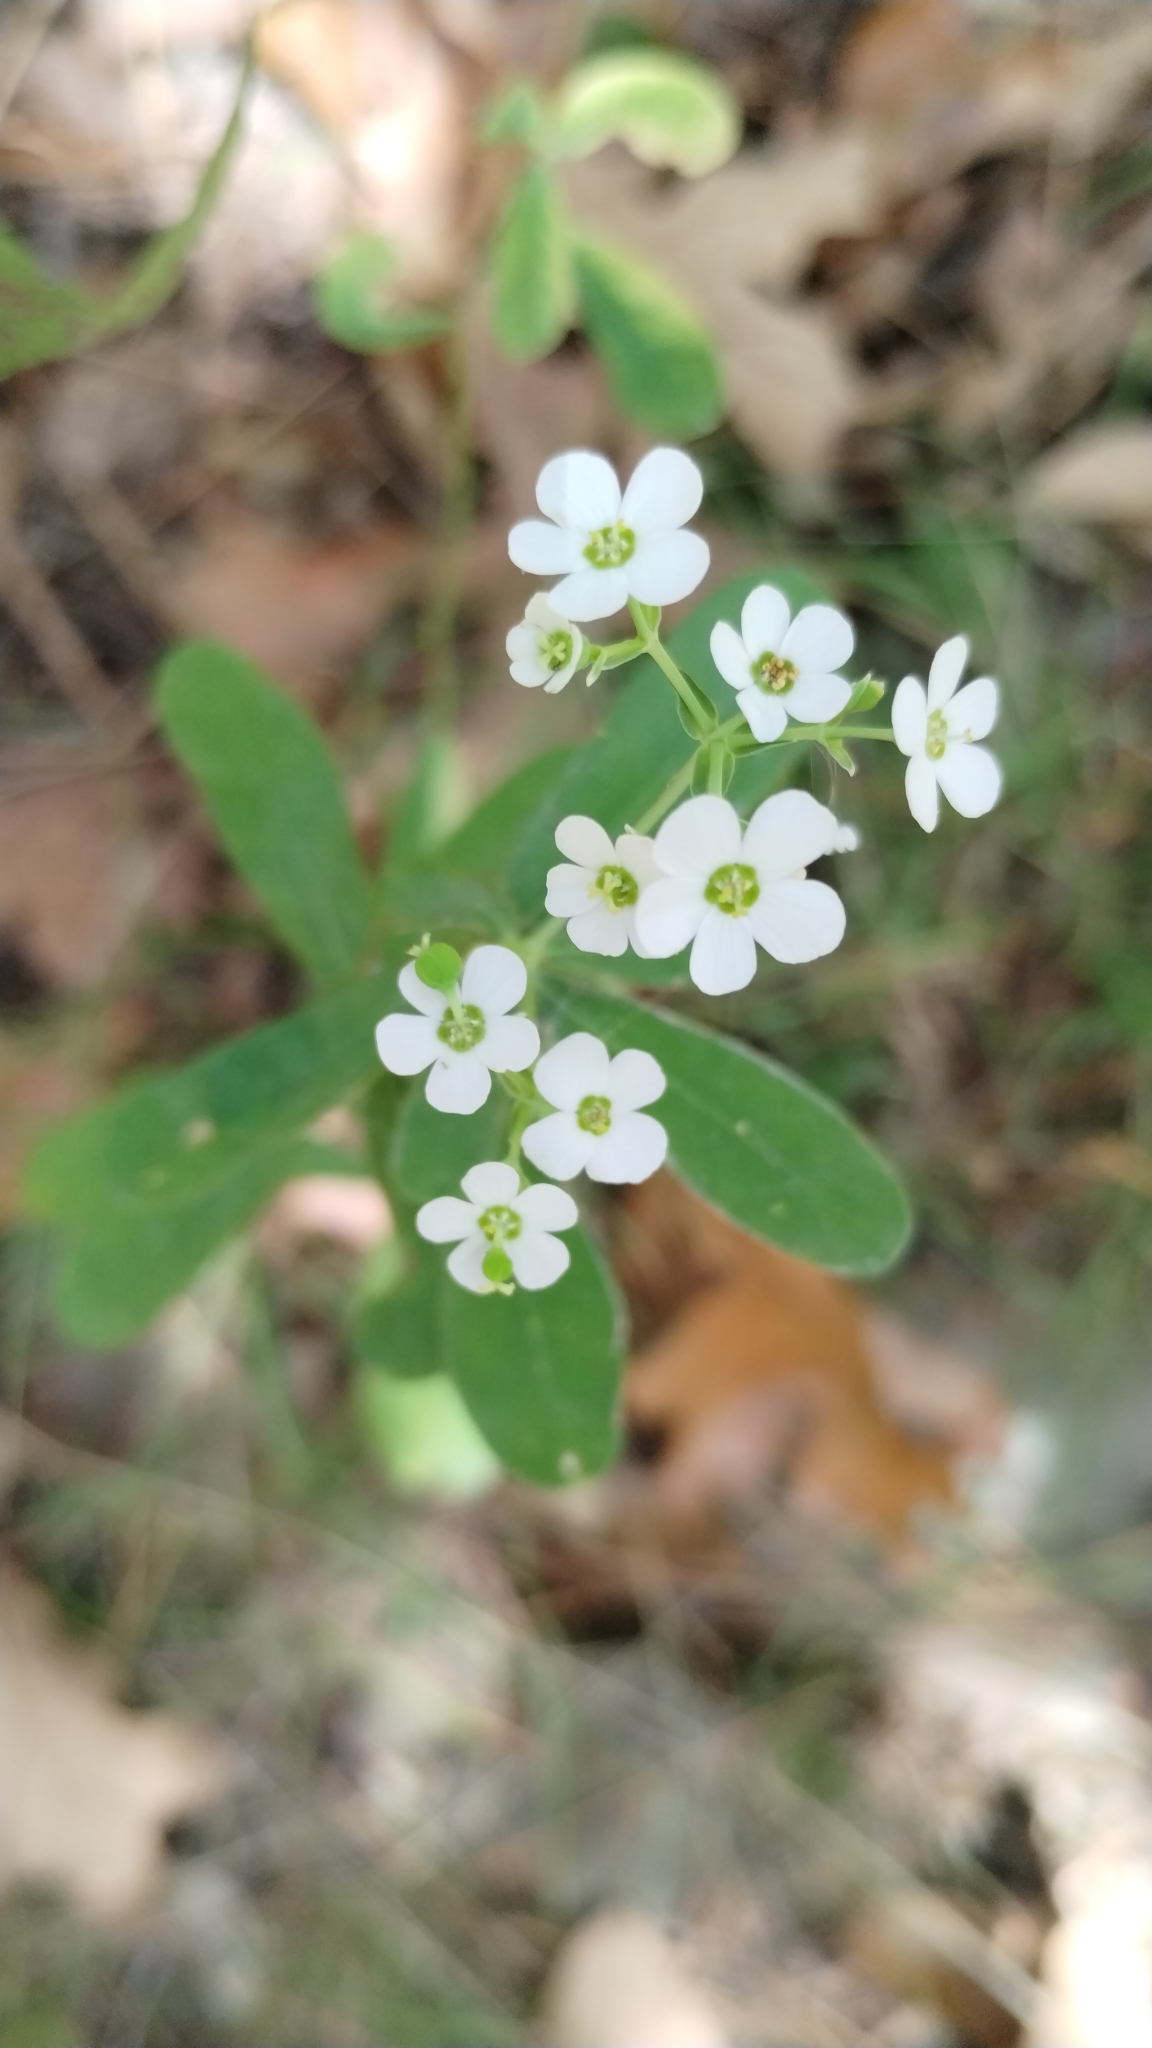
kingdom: Plantae
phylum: Tracheophyta
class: Magnoliopsida
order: Malpighiales
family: Euphorbiaceae
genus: Euphorbia
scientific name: Euphorbia corollata
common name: Flowering spurge
